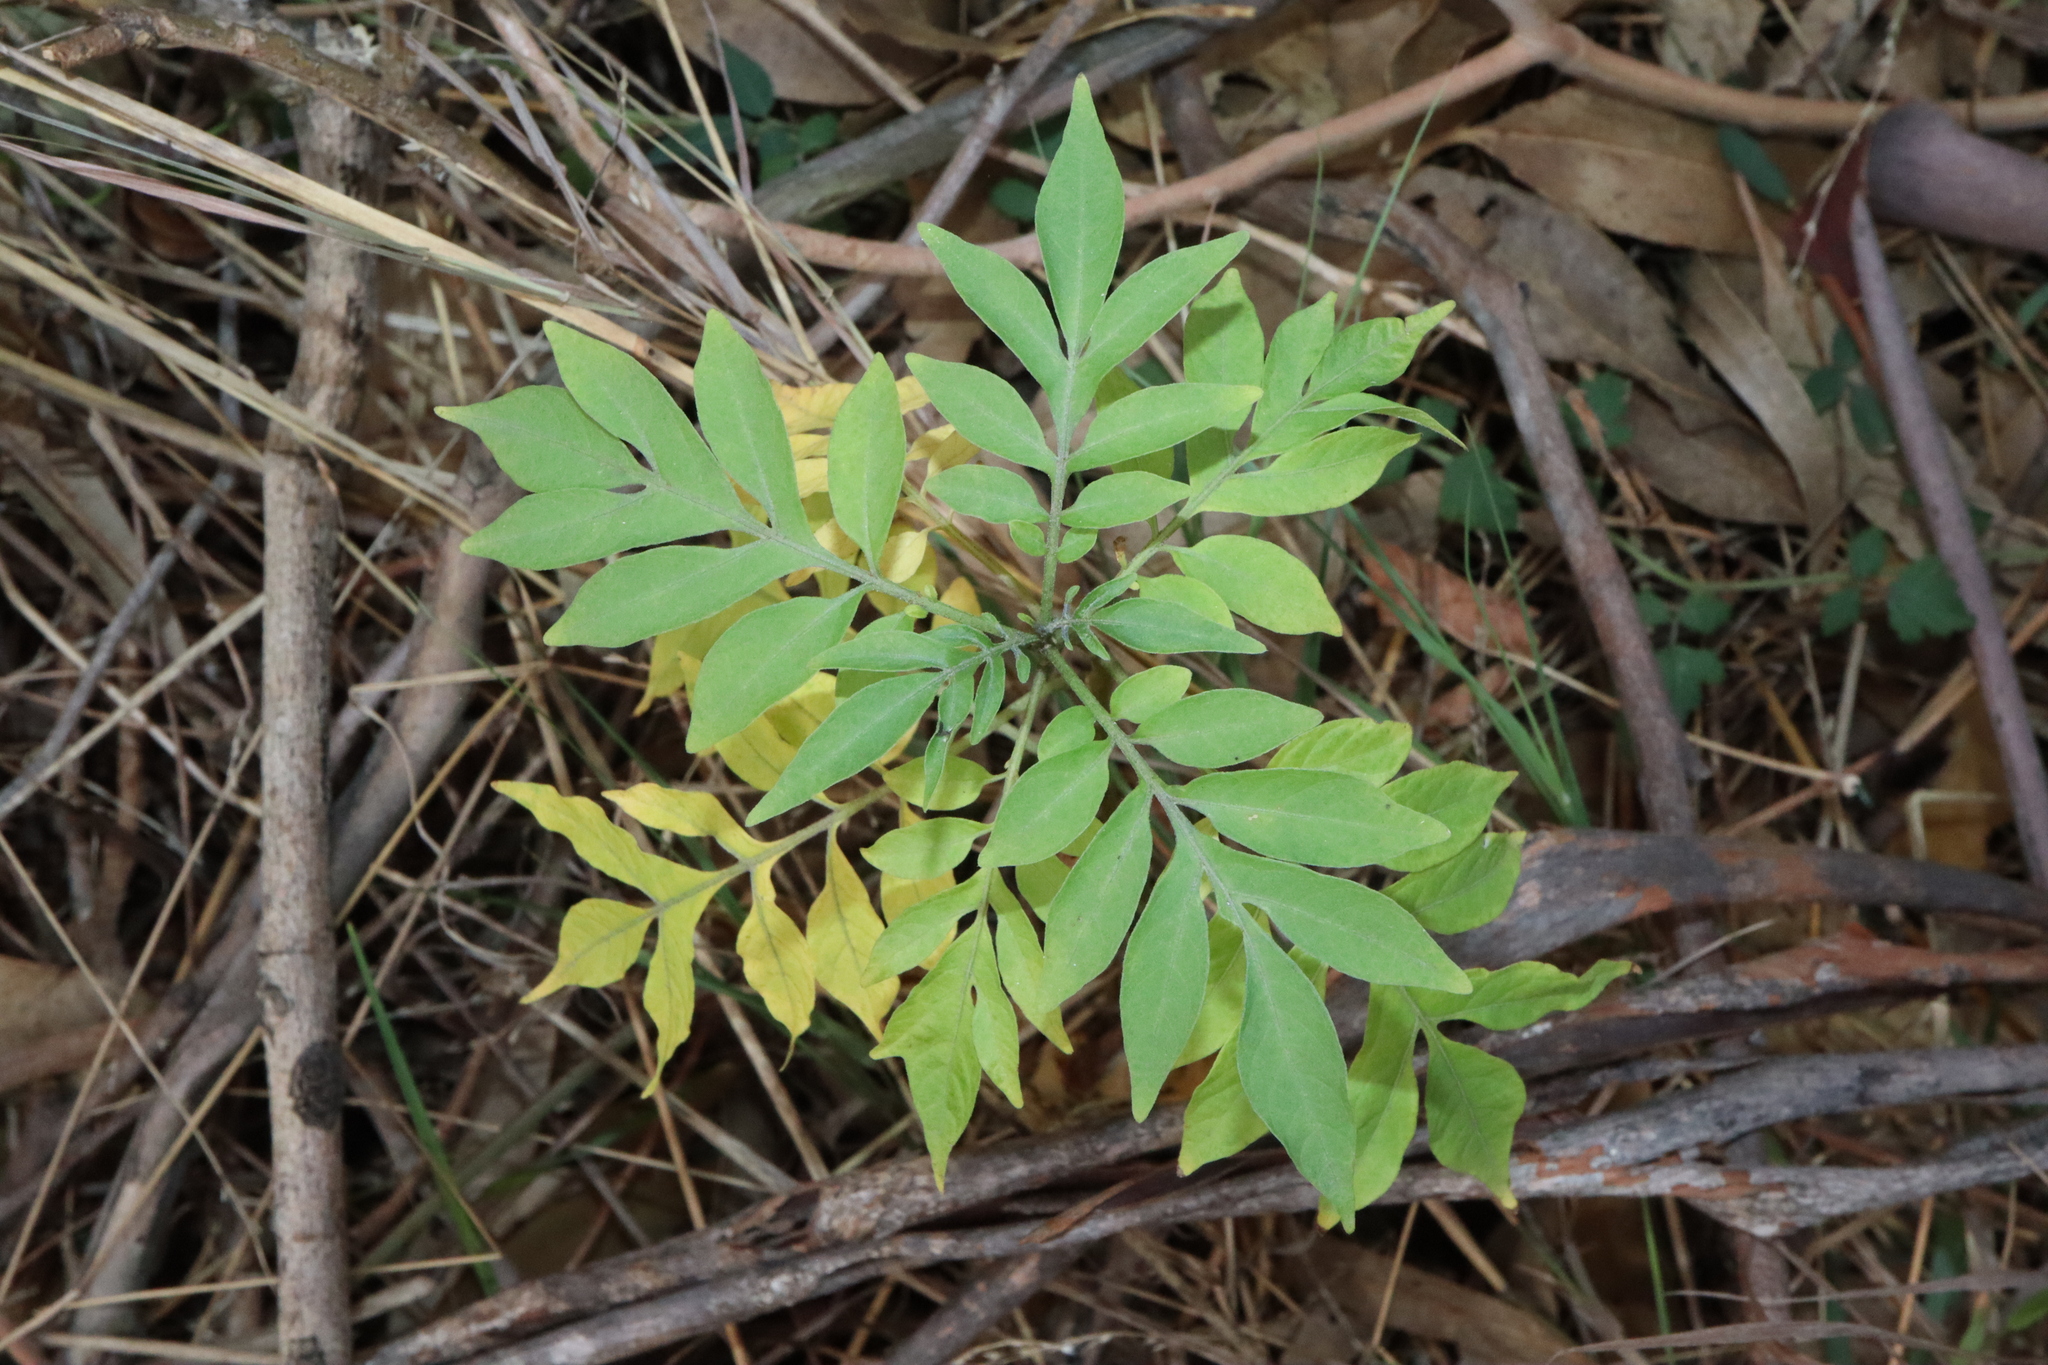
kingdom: Plantae
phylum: Tracheophyta
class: Magnoliopsida
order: Solanales
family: Solanaceae
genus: Solanum
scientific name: Solanum seaforthianum
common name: Brazilian nightshade
